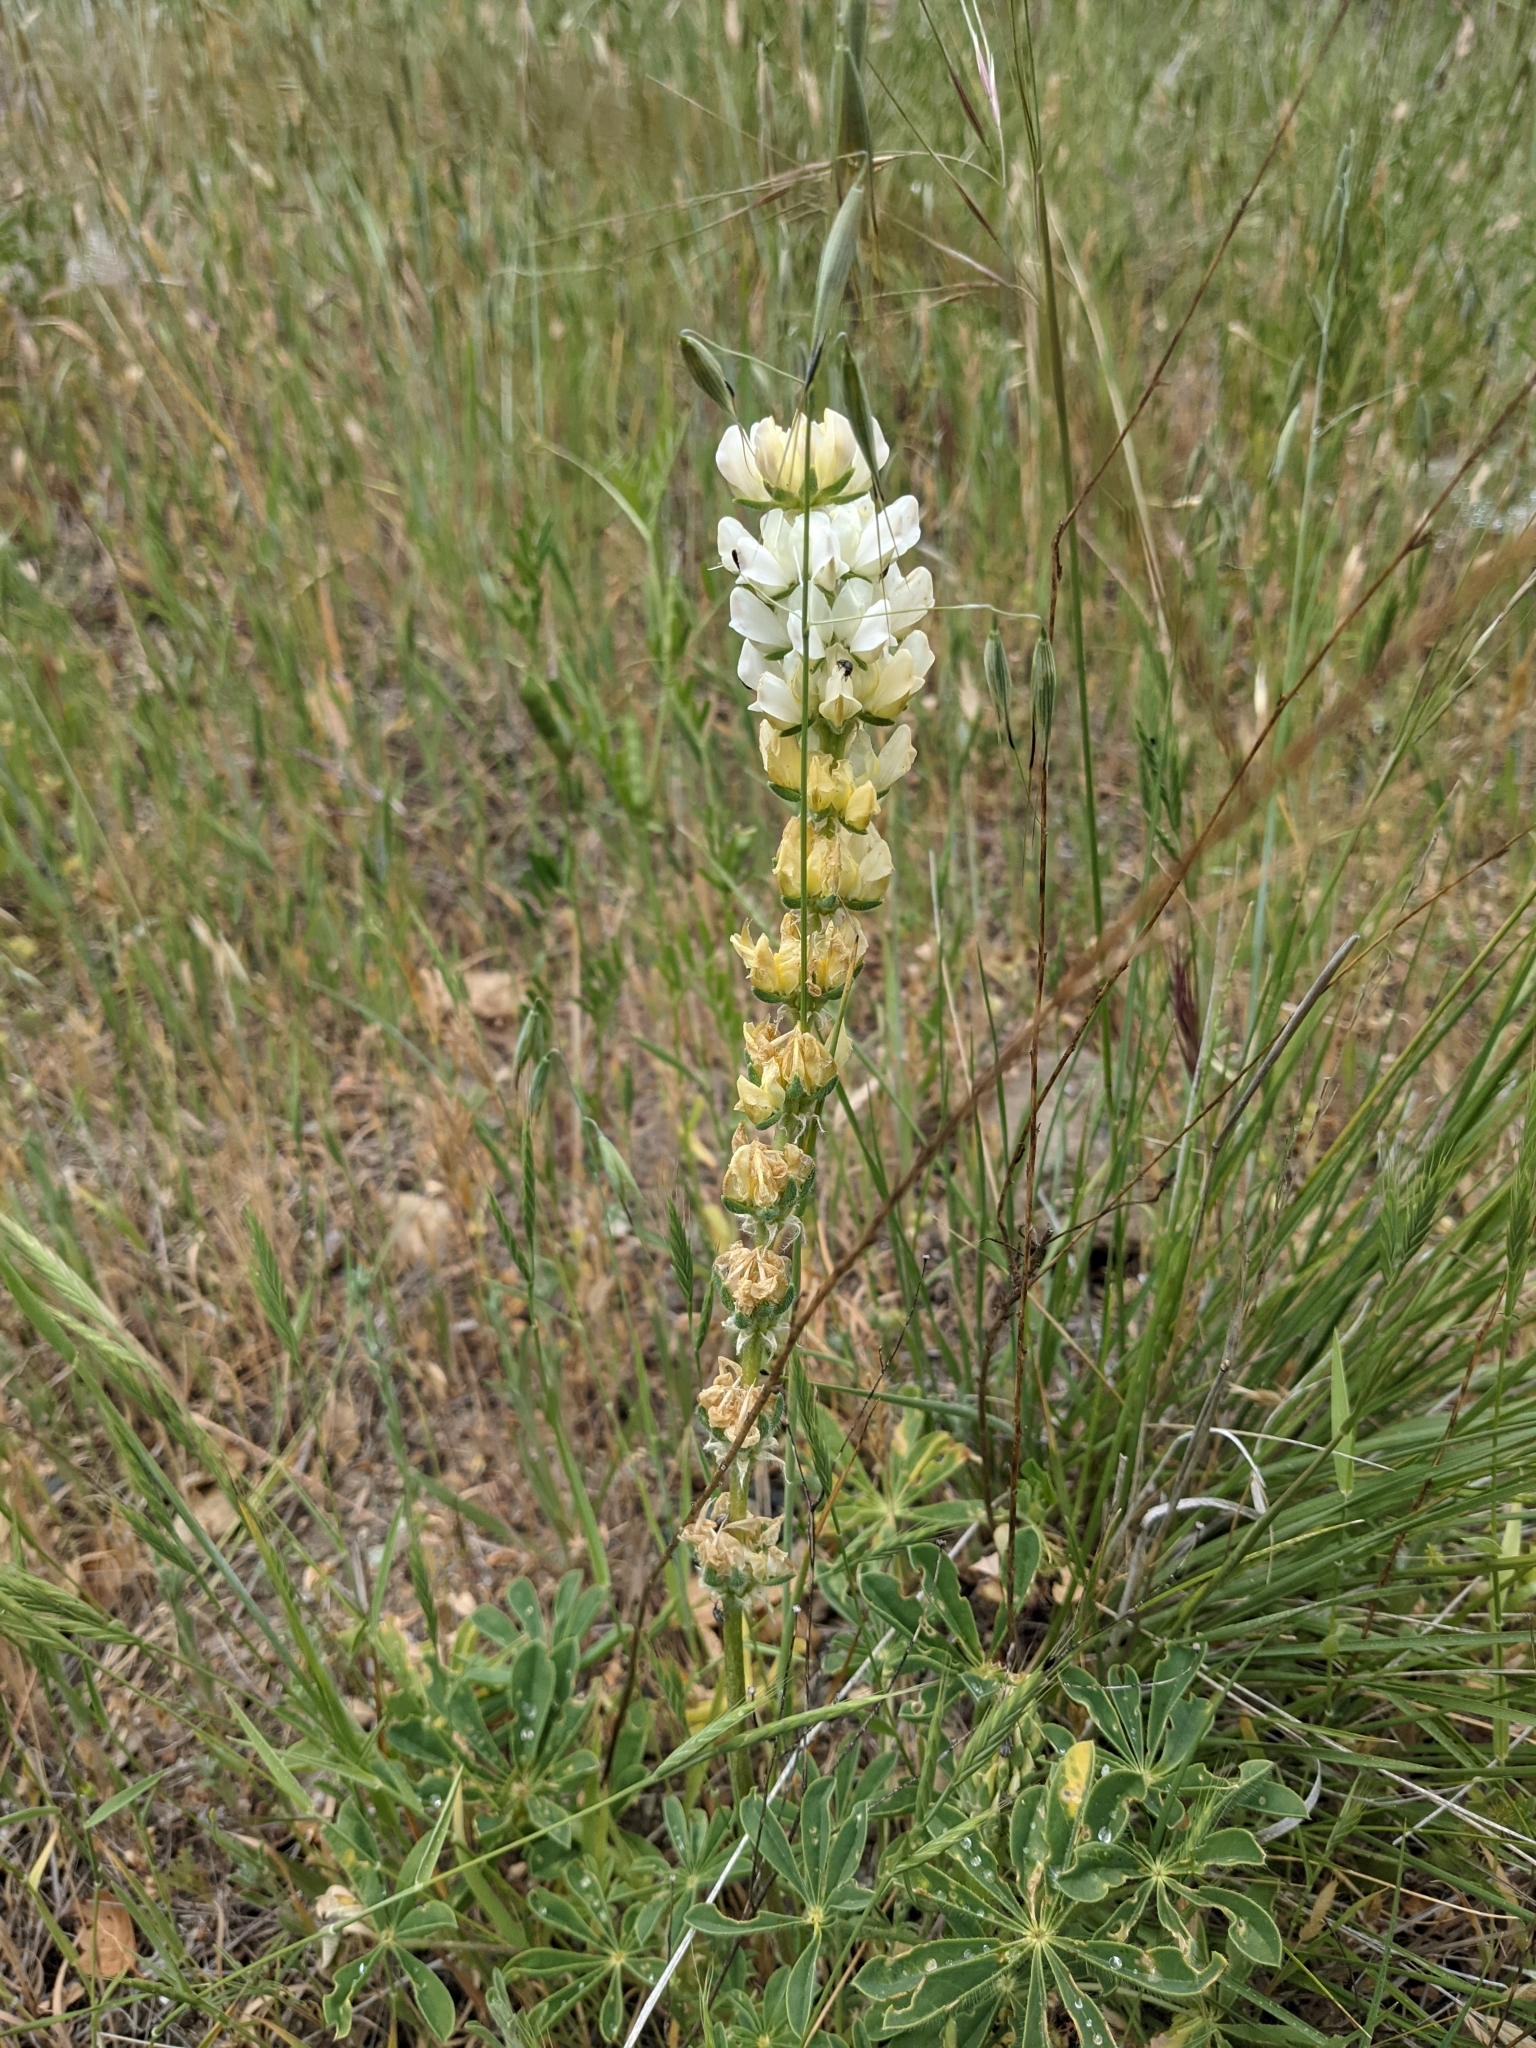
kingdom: Plantae
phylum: Tracheophyta
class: Magnoliopsida
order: Fabales
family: Fabaceae
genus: Lupinus
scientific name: Lupinus microcarpus
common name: Chick lupine
